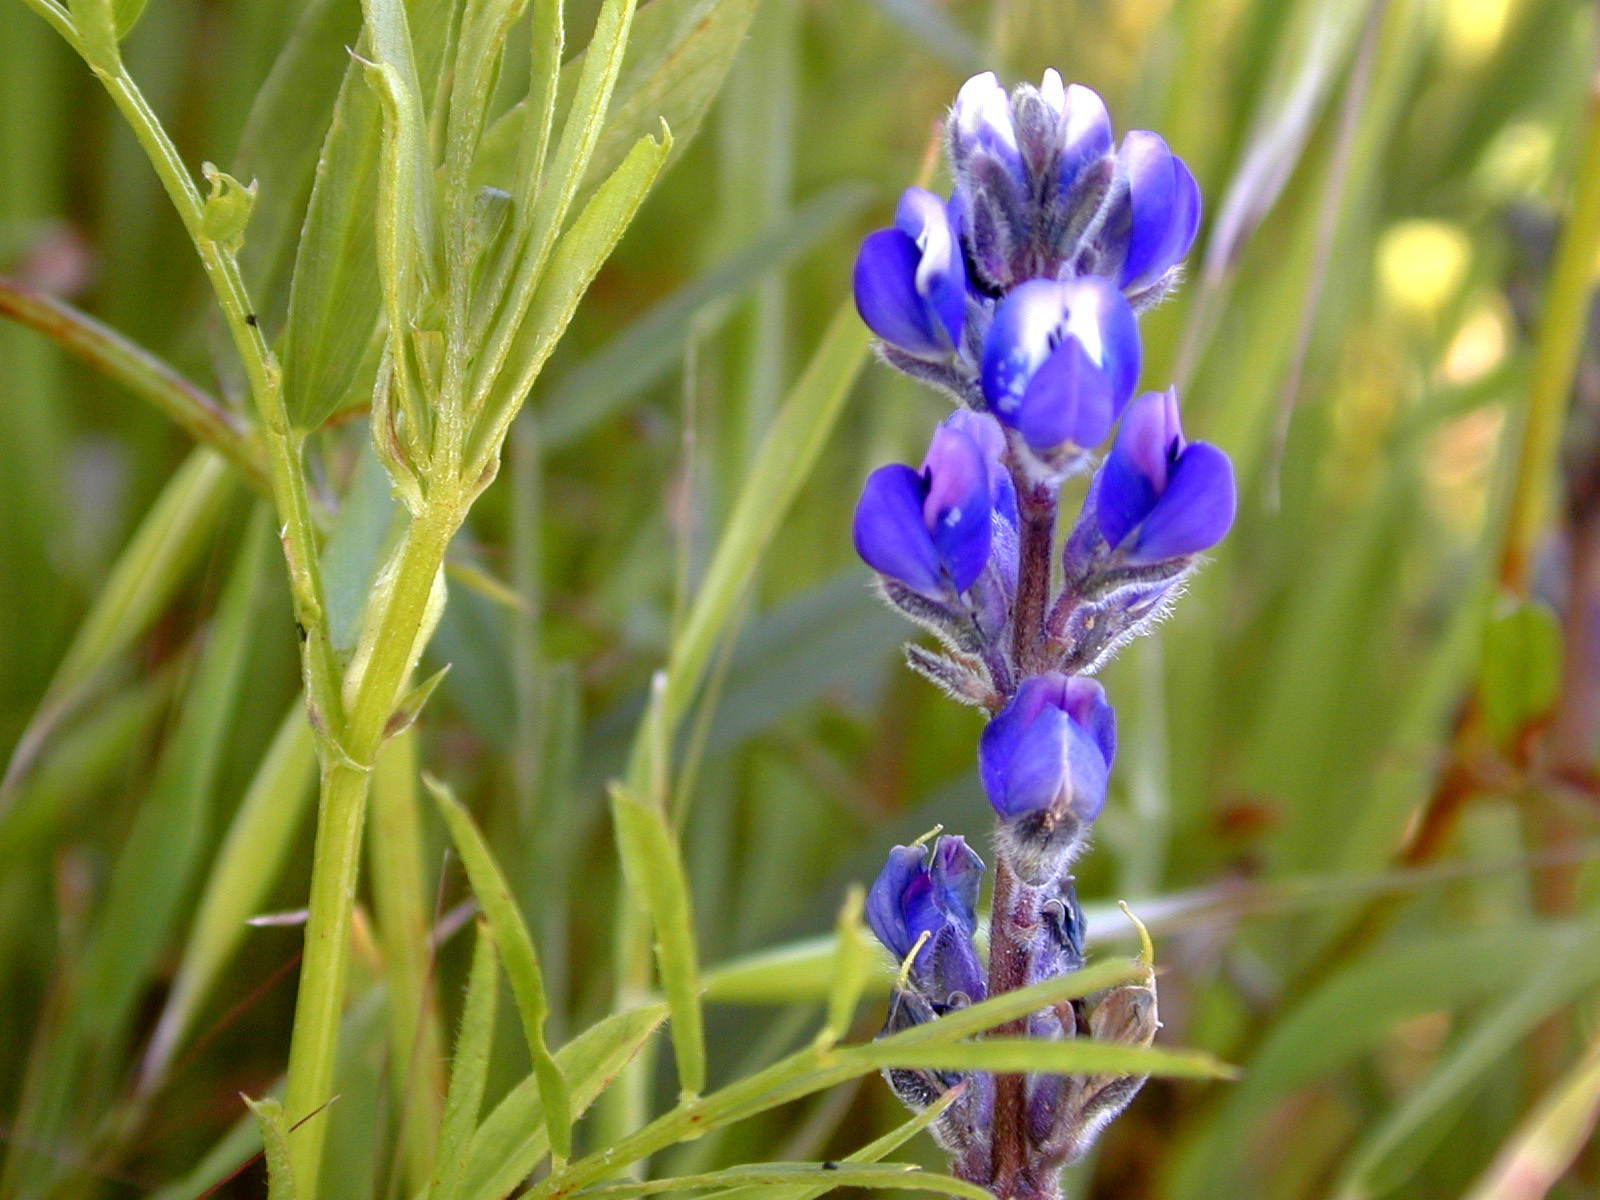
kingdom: Plantae
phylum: Tracheophyta
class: Magnoliopsida
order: Fabales
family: Fabaceae
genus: Lupinus
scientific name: Lupinus bicolor
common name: Miniature lupine
